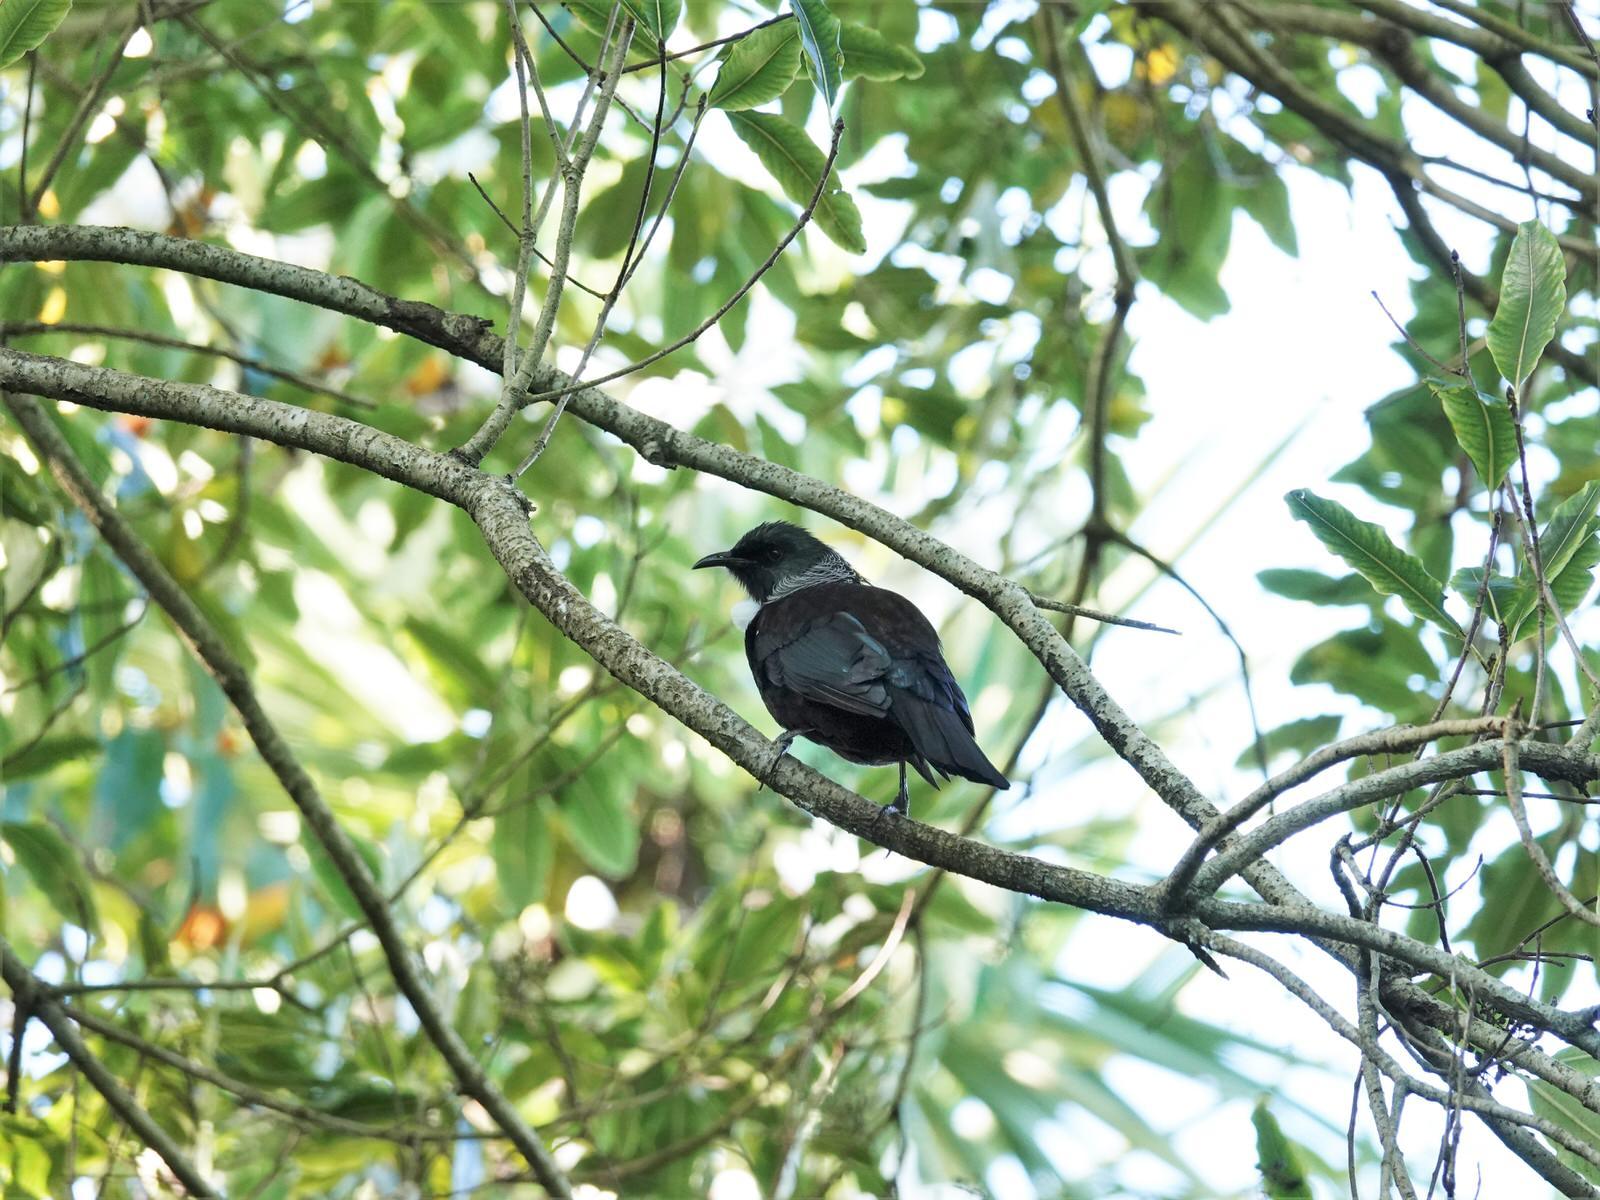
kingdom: Animalia
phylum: Chordata
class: Aves
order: Passeriformes
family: Meliphagidae
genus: Prosthemadera
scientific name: Prosthemadera novaeseelandiae
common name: Tui
